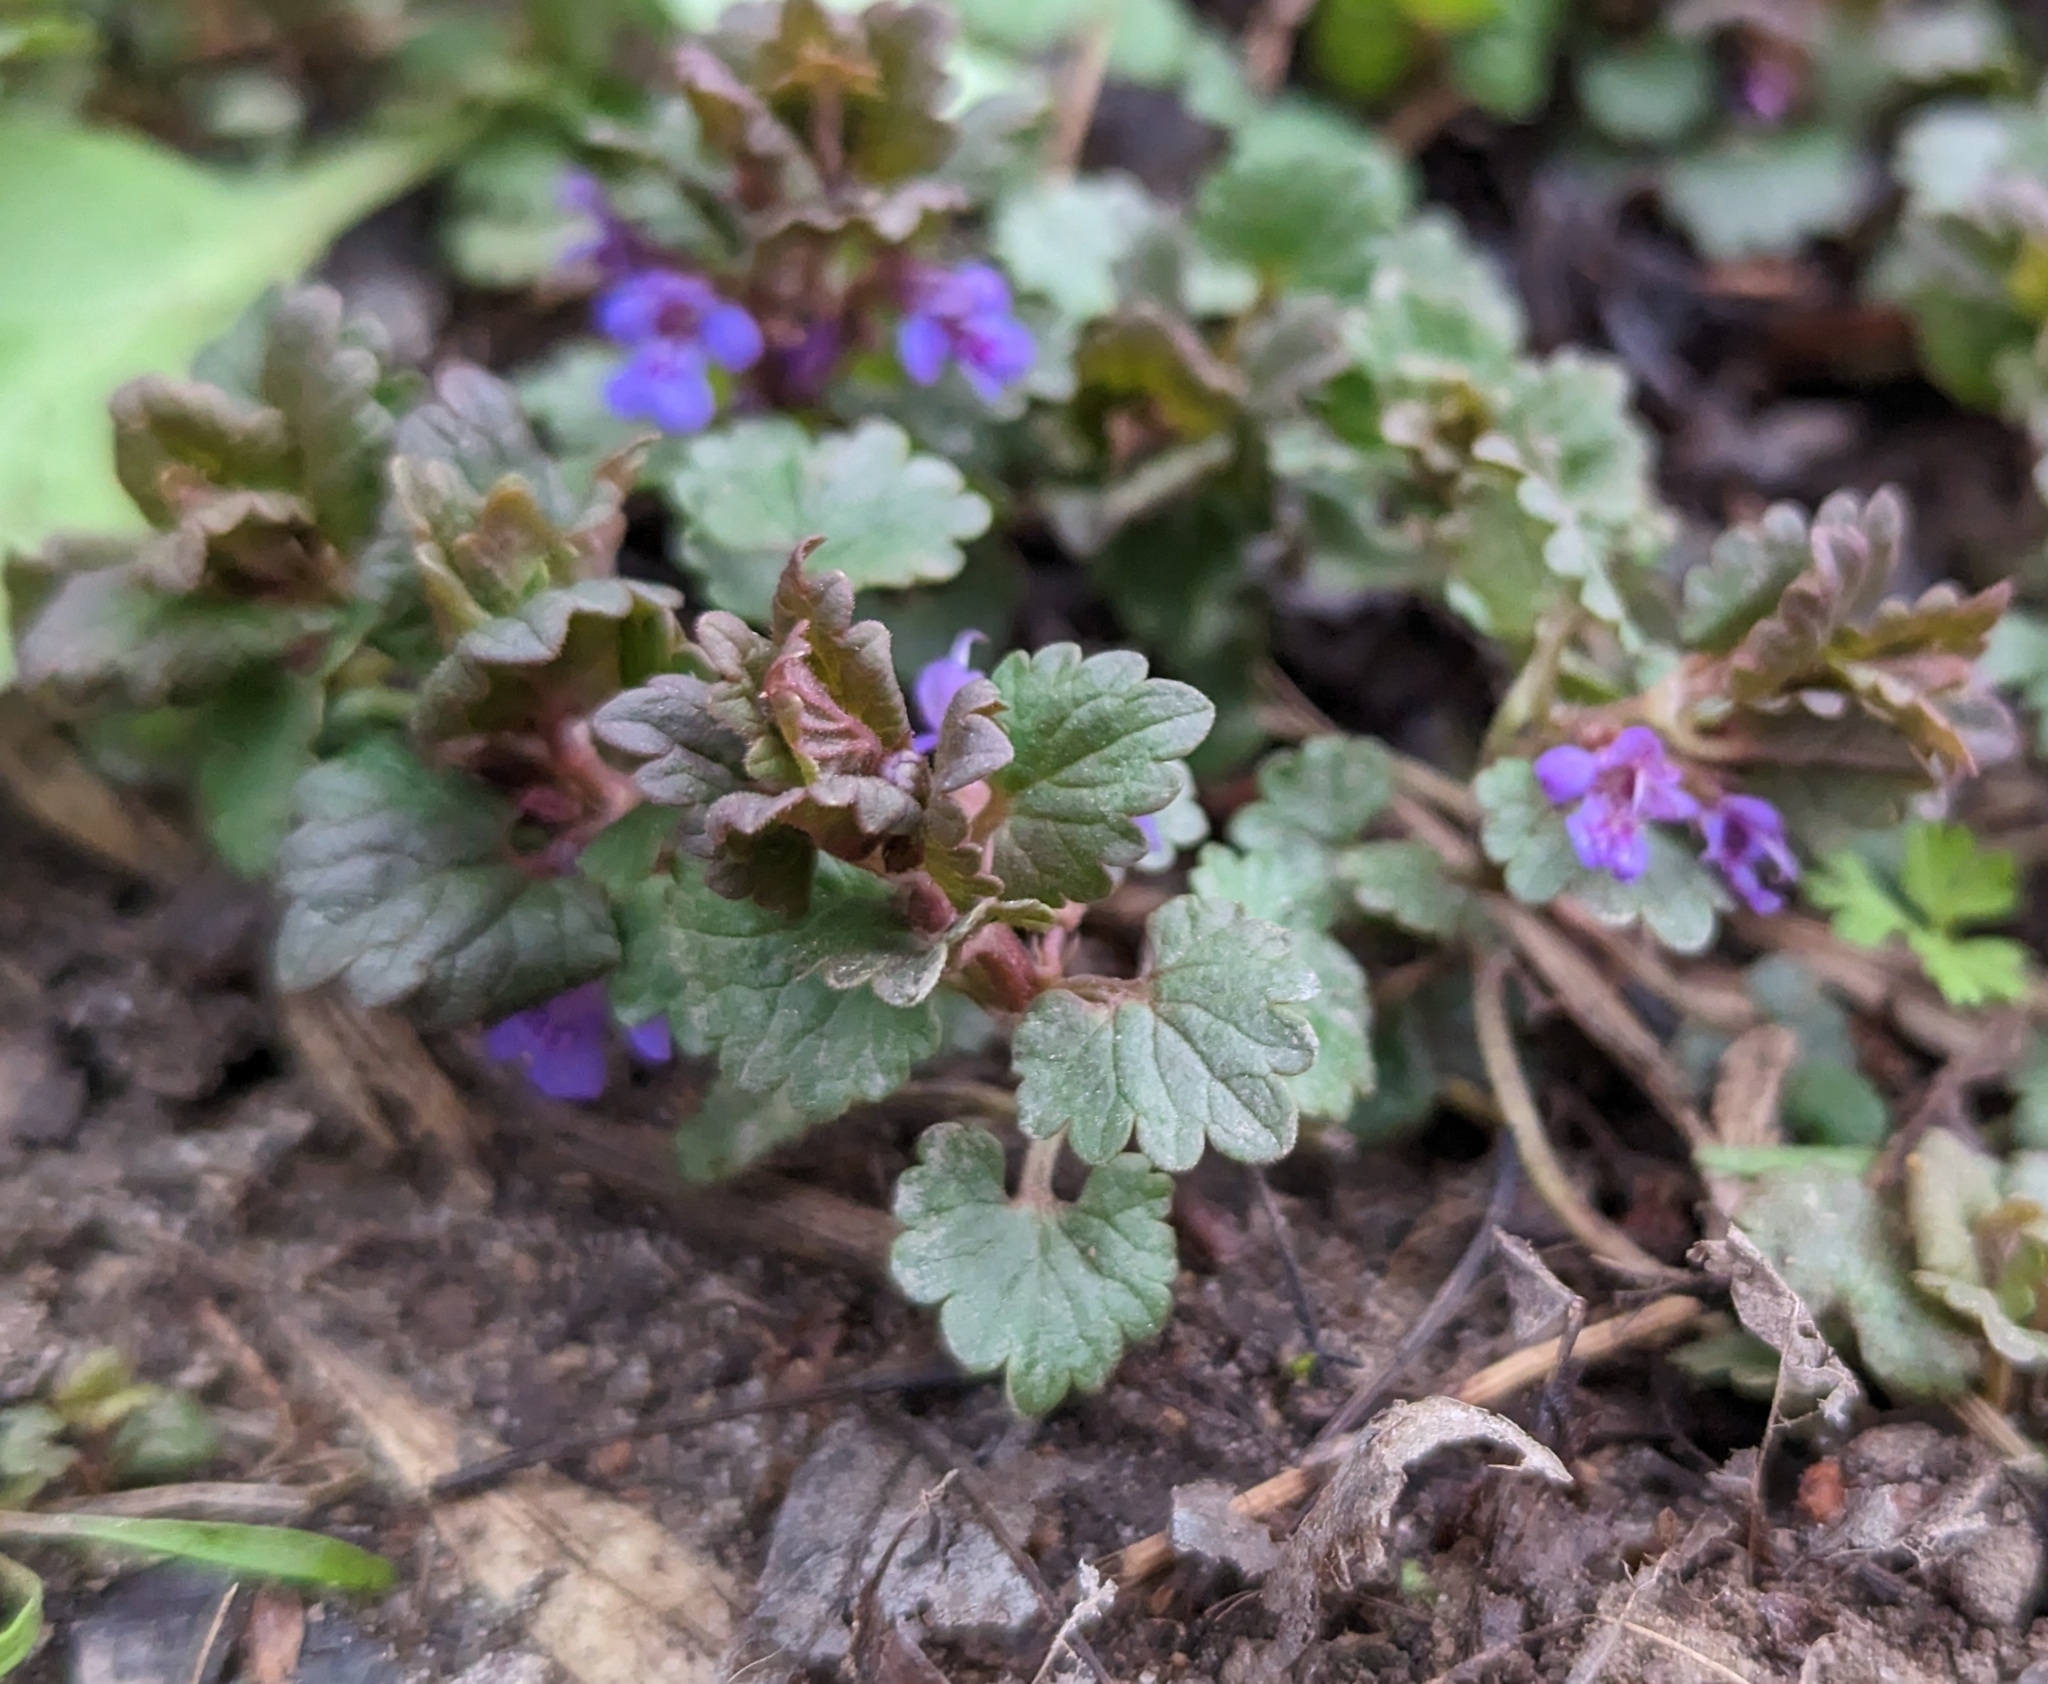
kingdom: Plantae
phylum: Tracheophyta
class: Magnoliopsida
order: Lamiales
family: Lamiaceae
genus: Glechoma
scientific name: Glechoma hederacea
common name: Ground ivy
